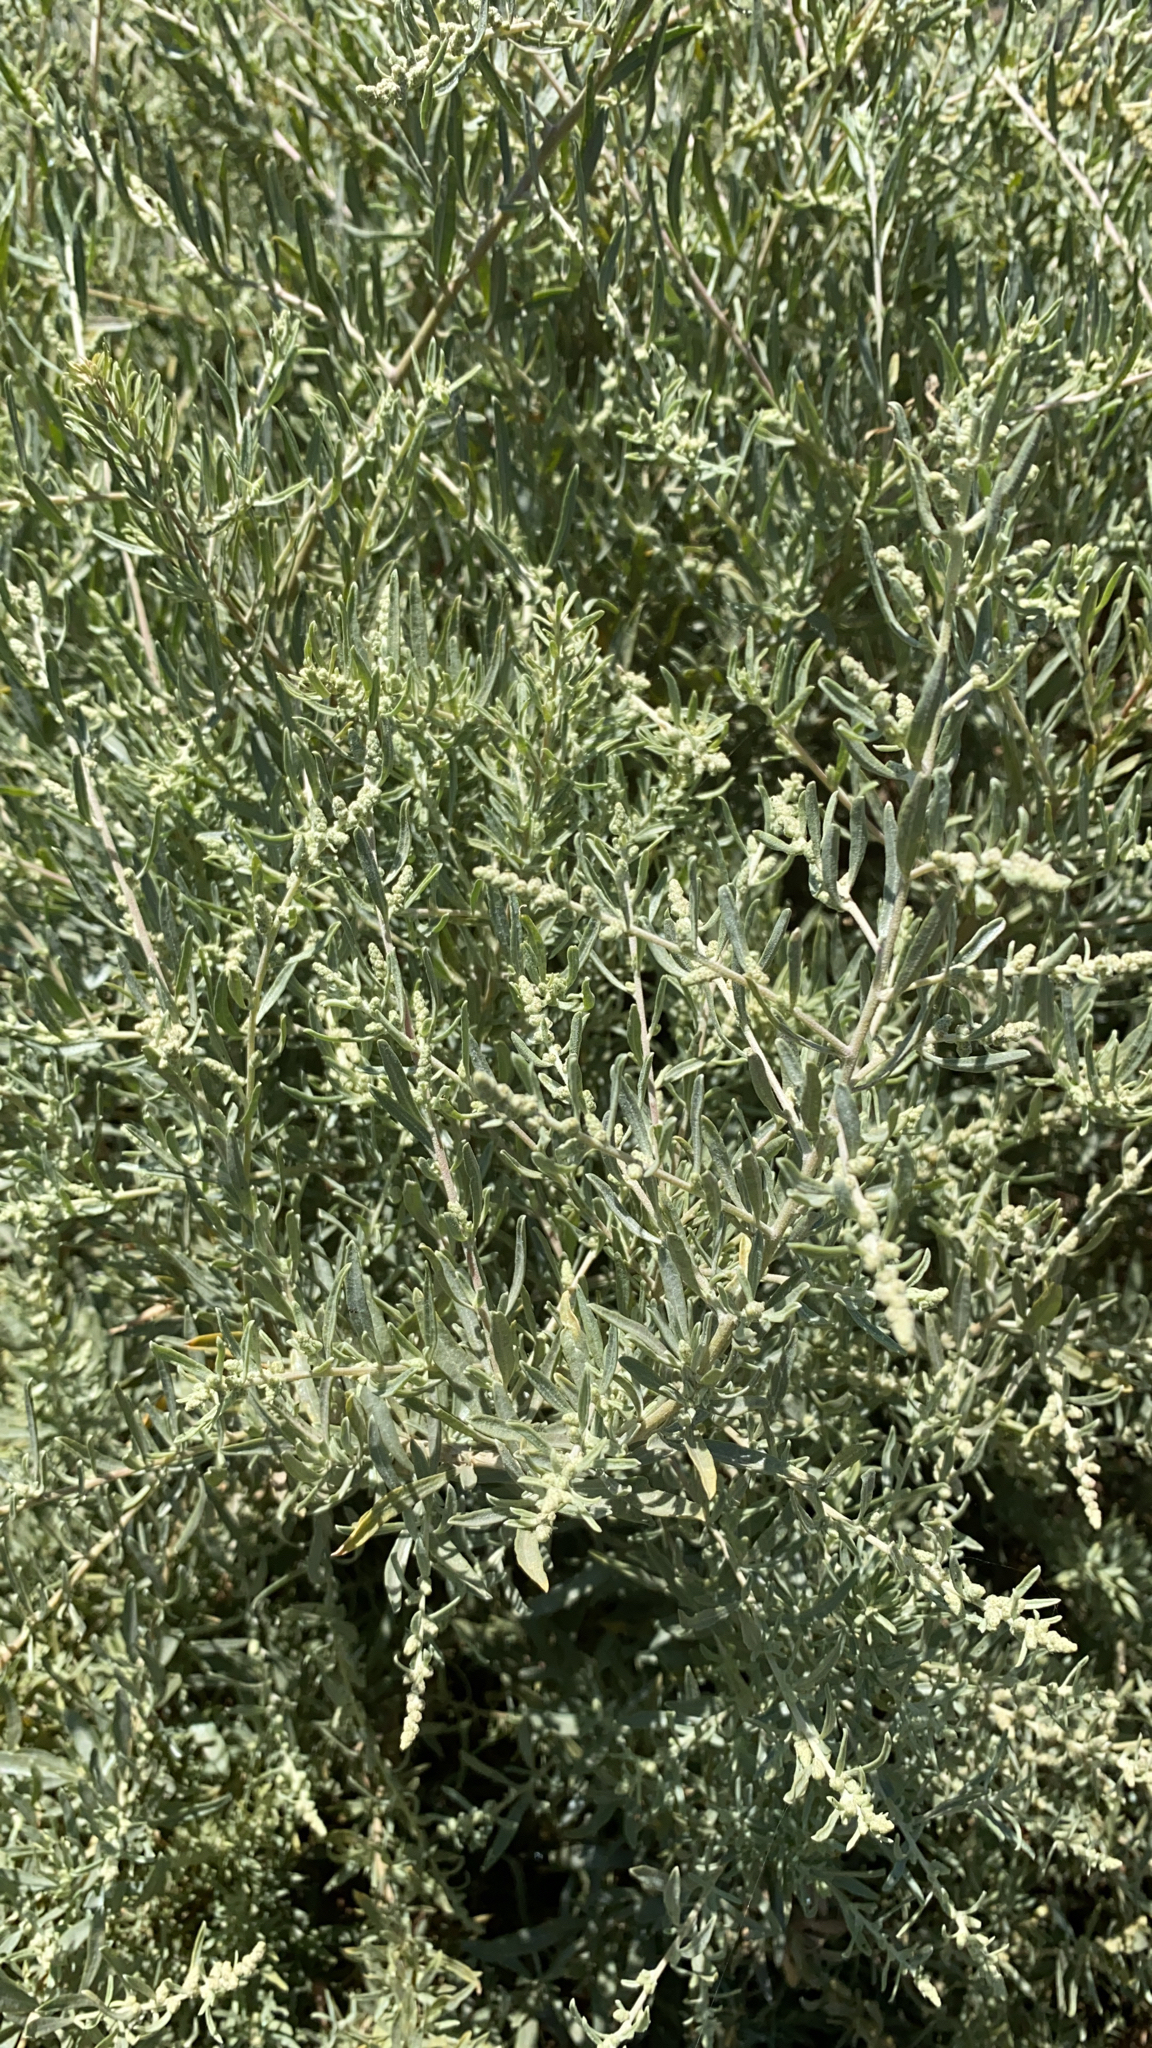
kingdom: Plantae
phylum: Tracheophyta
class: Magnoliopsida
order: Caryophyllales
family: Amaranthaceae
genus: Atriplex
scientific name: Atriplex canescens
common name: Four-wing saltbush
